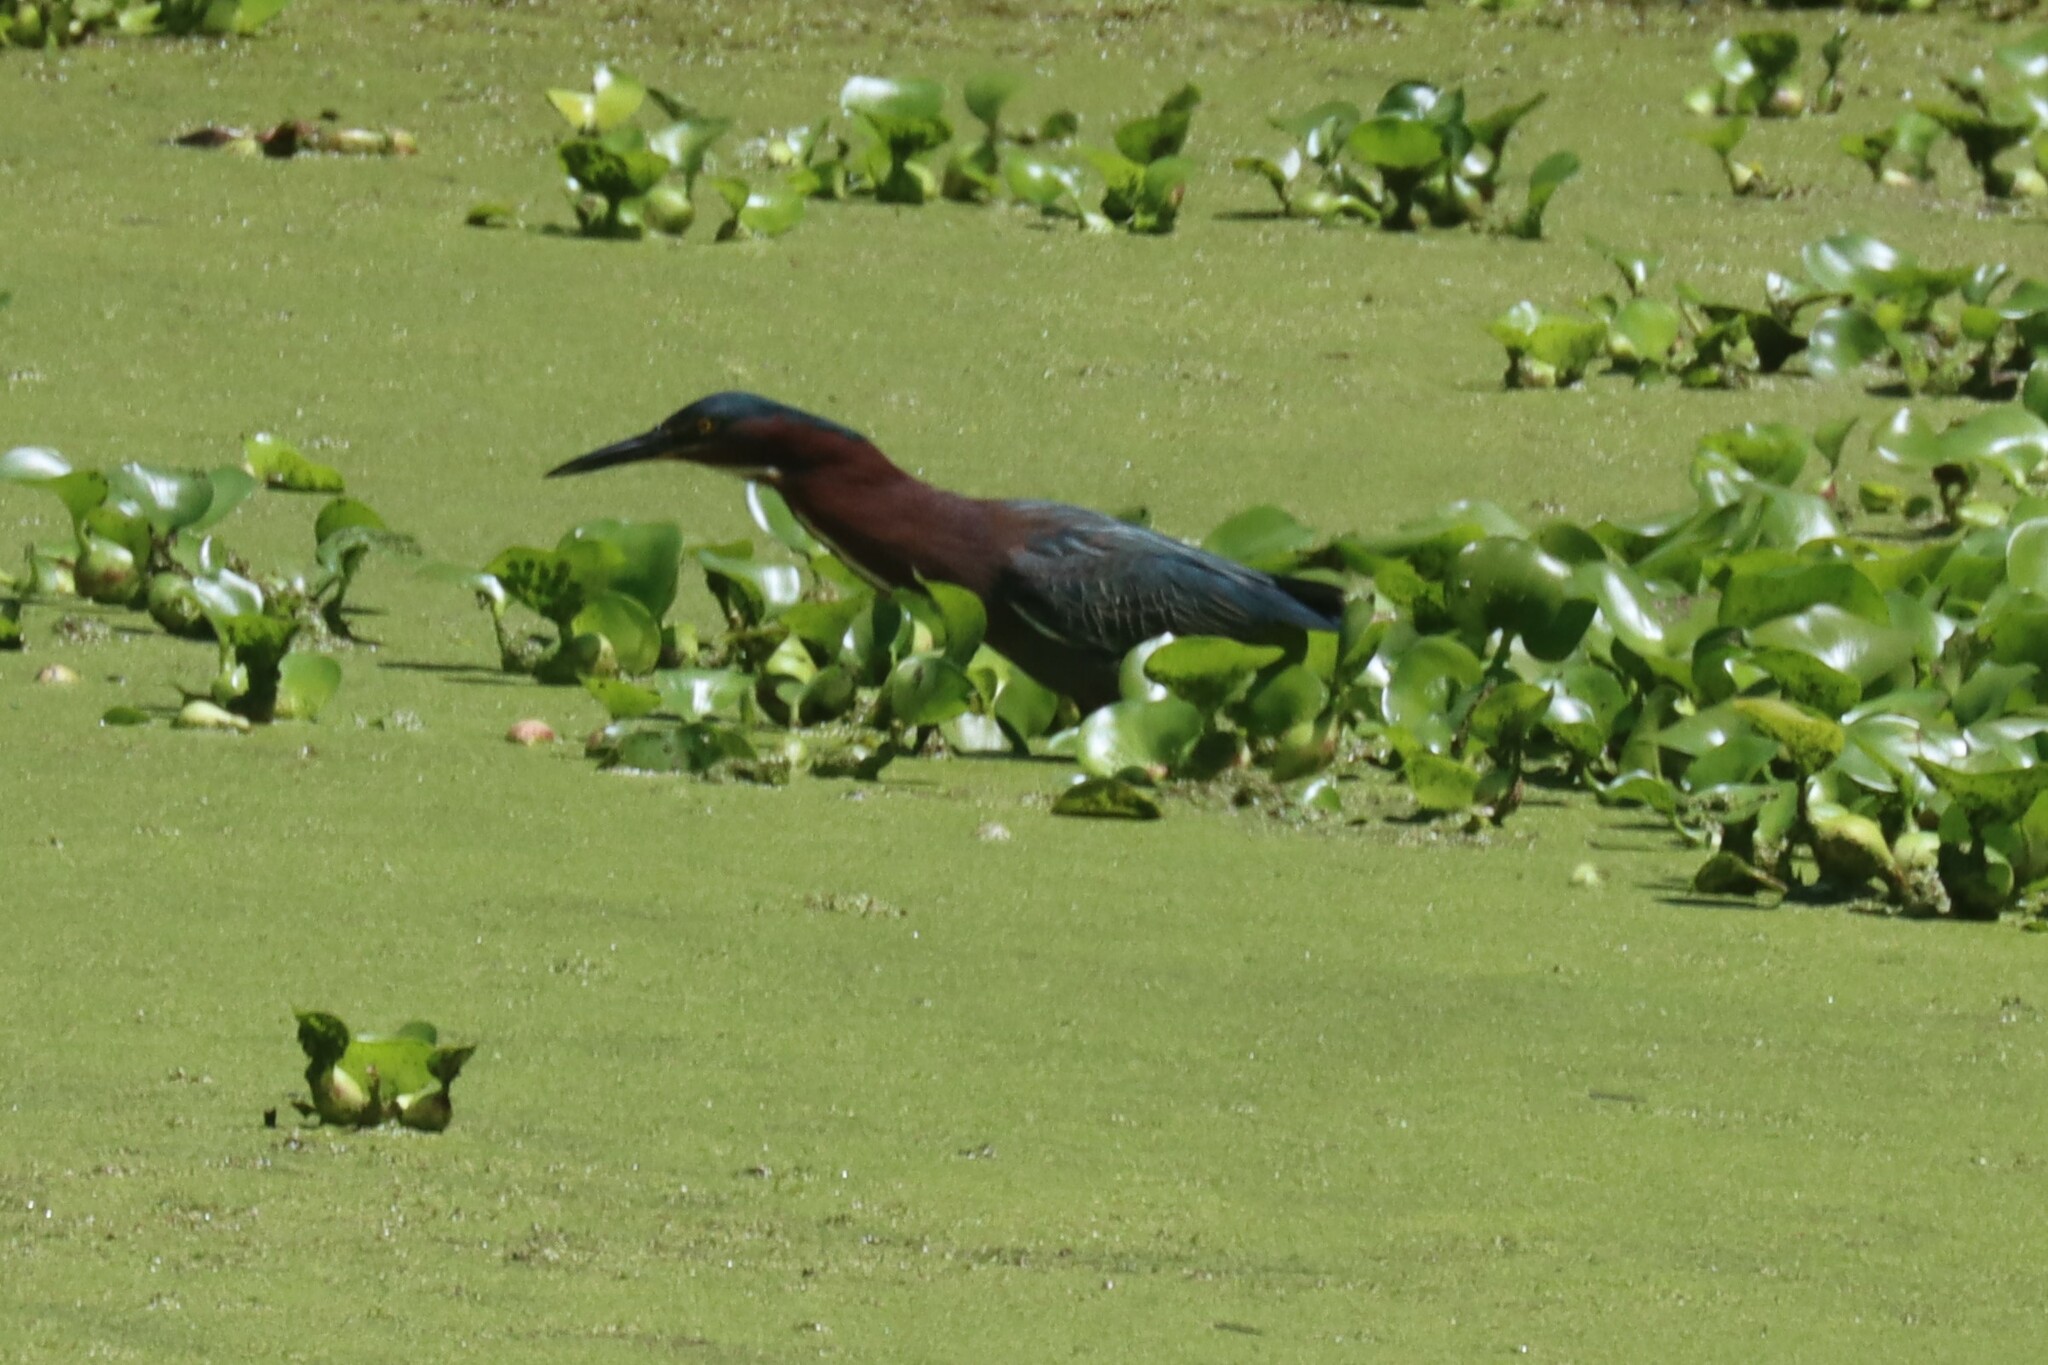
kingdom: Animalia
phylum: Chordata
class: Aves
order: Pelecaniformes
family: Ardeidae
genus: Butorides
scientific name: Butorides virescens
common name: Green heron
